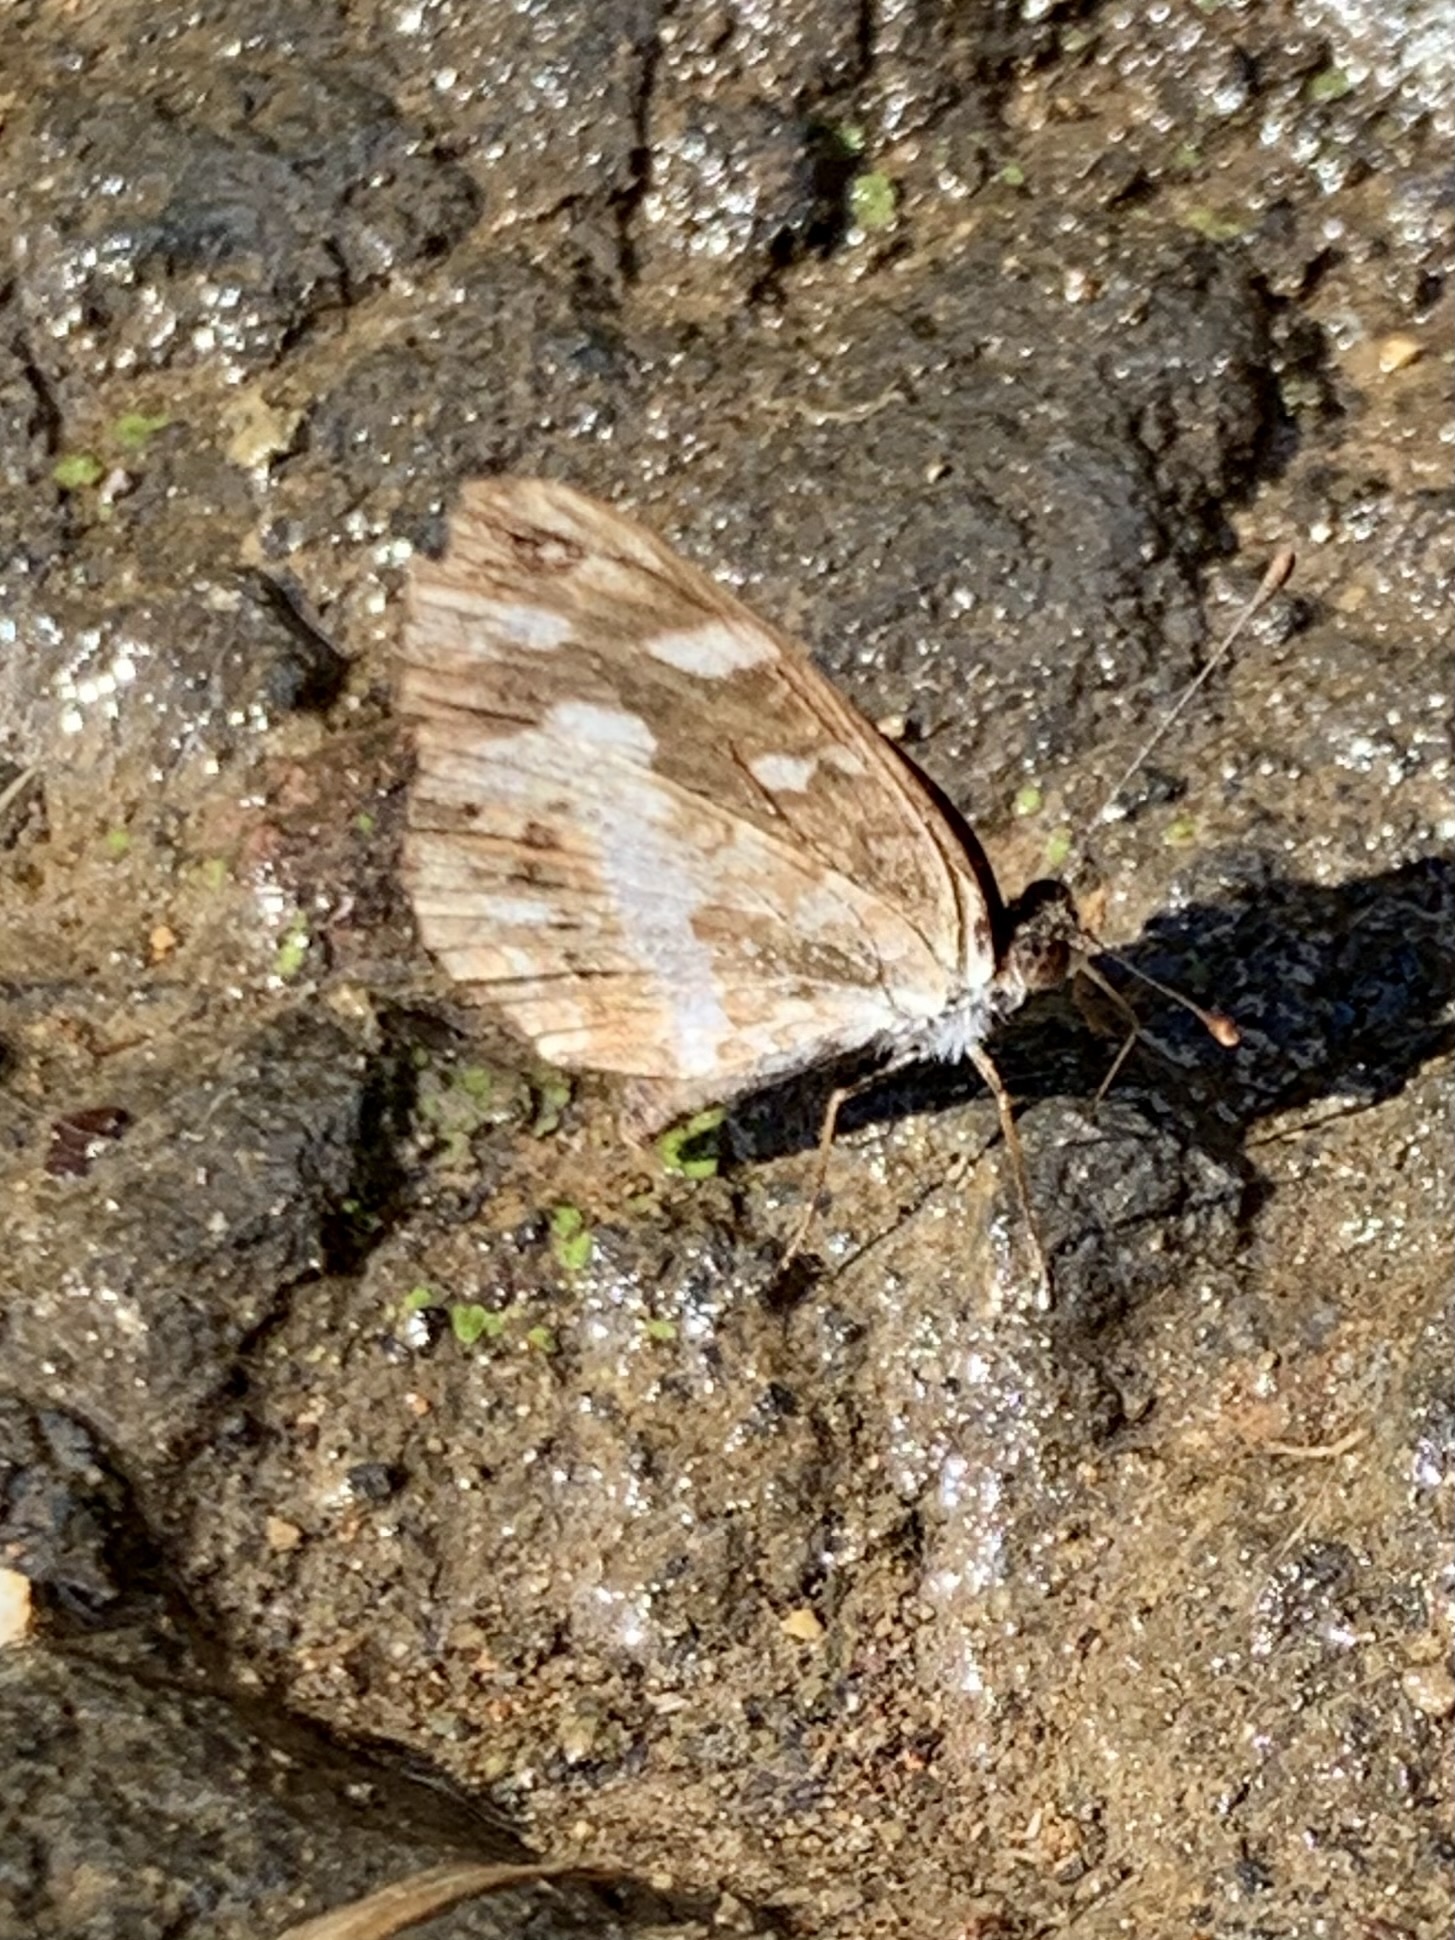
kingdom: Animalia
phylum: Arthropoda
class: Insecta
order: Lepidoptera
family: Nymphalidae
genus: Janatella
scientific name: Janatella fellula
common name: Colombian crescent
